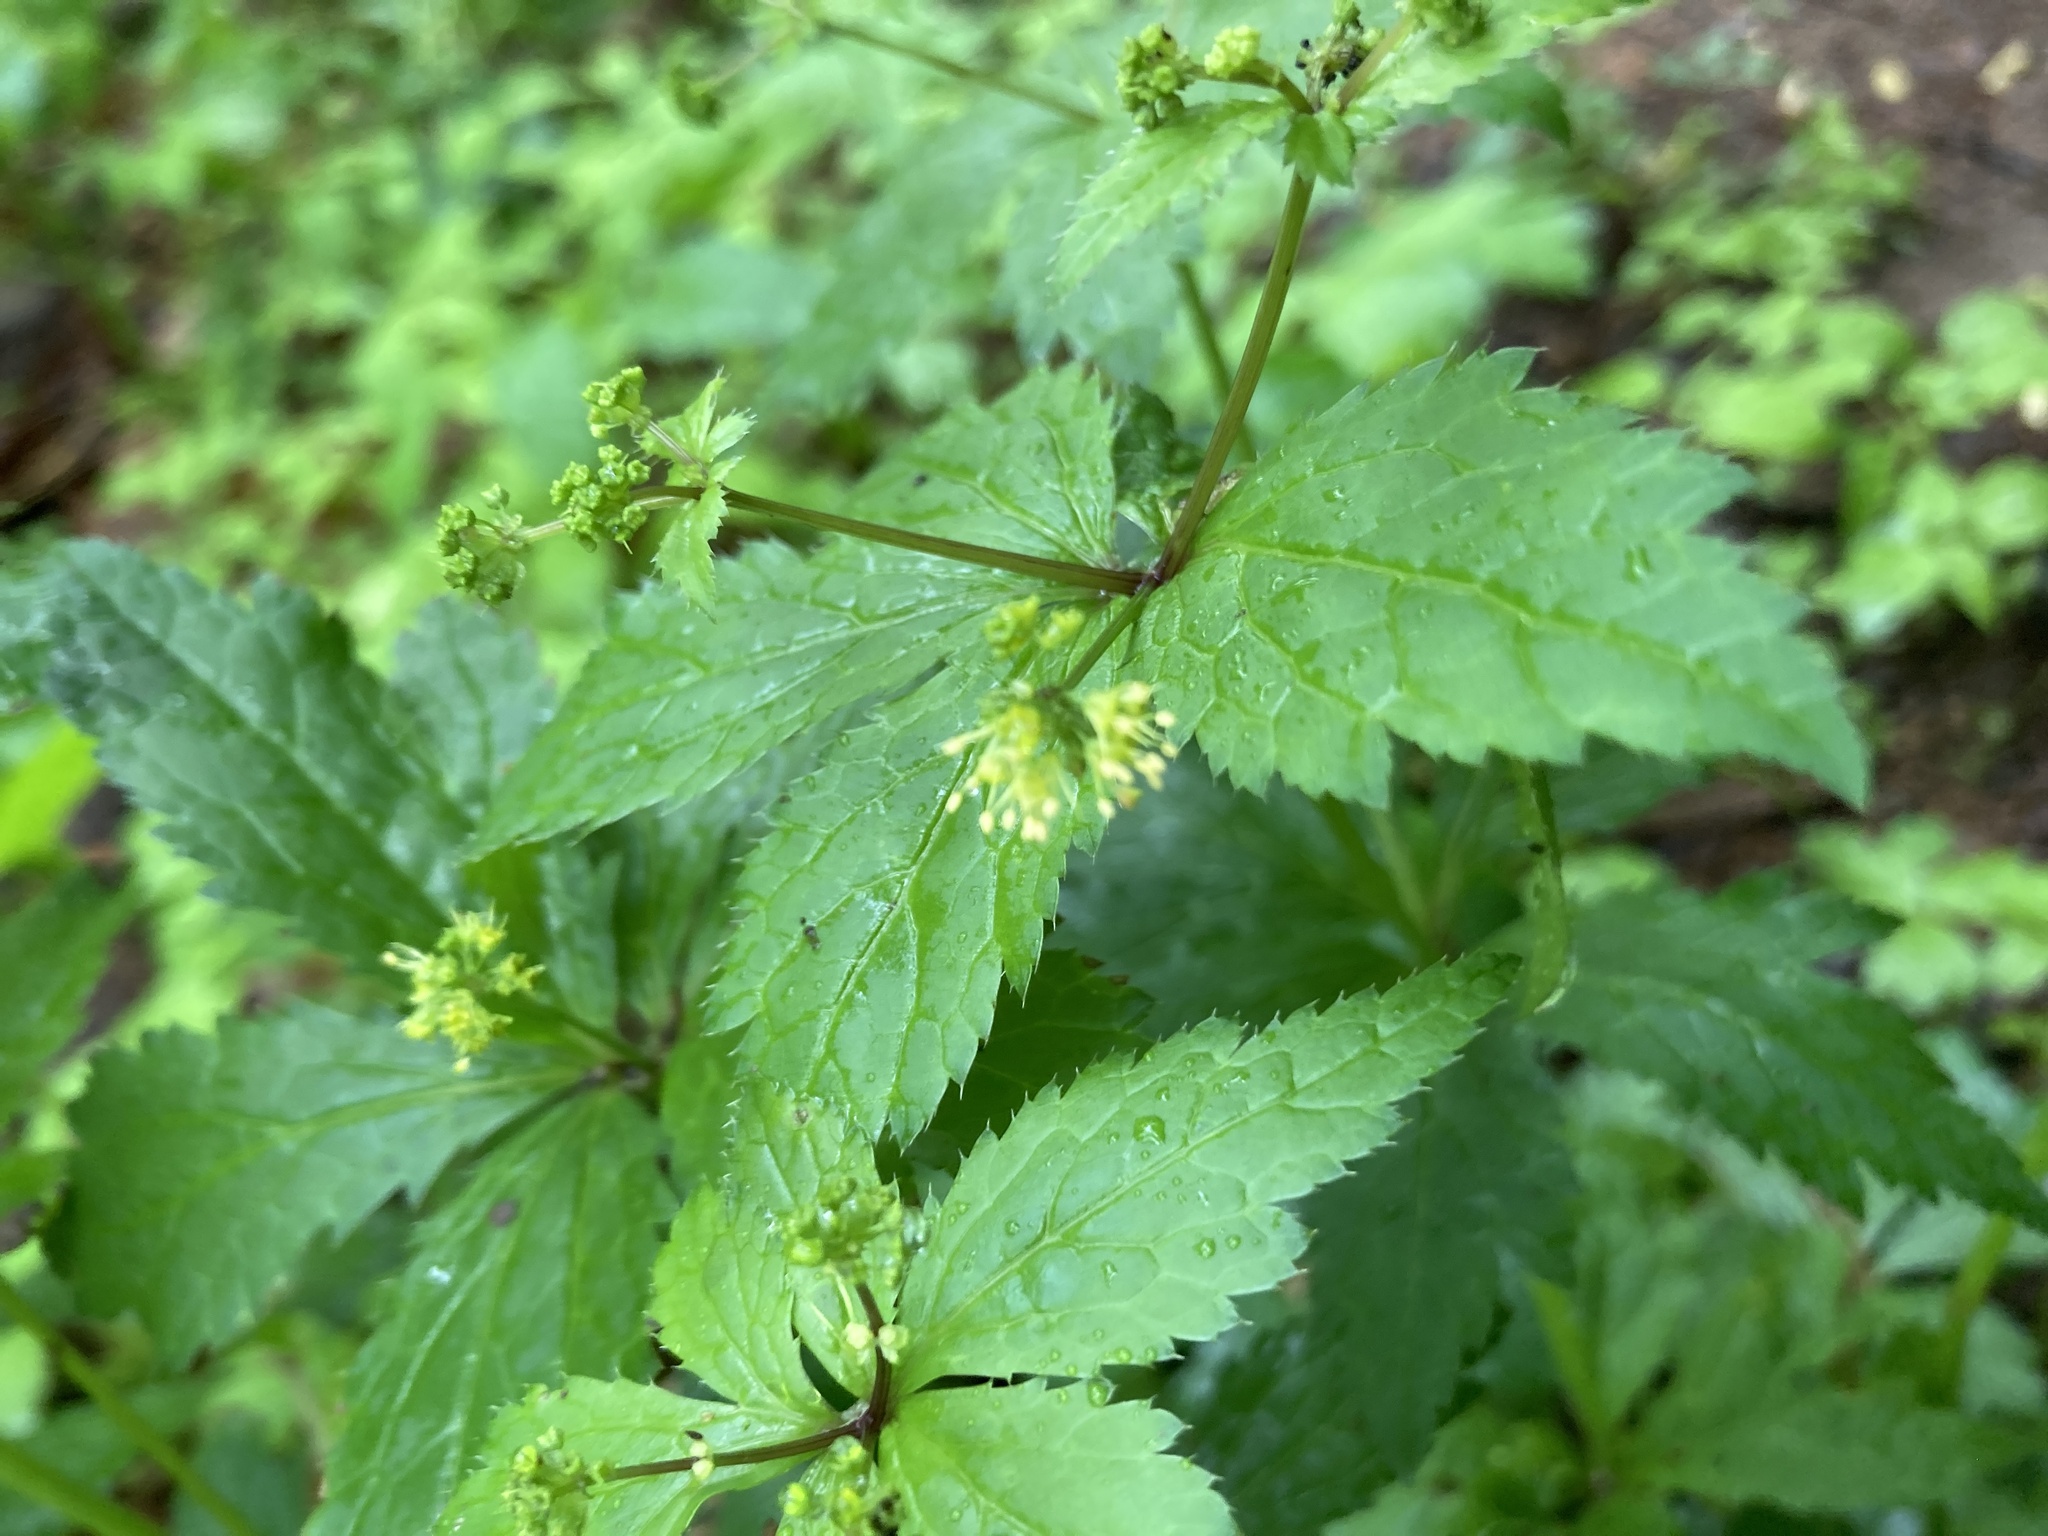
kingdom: Plantae
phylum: Tracheophyta
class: Magnoliopsida
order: Apiales
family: Apiaceae
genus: Sanicula
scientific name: Sanicula odorata
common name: Cluster sanicle
